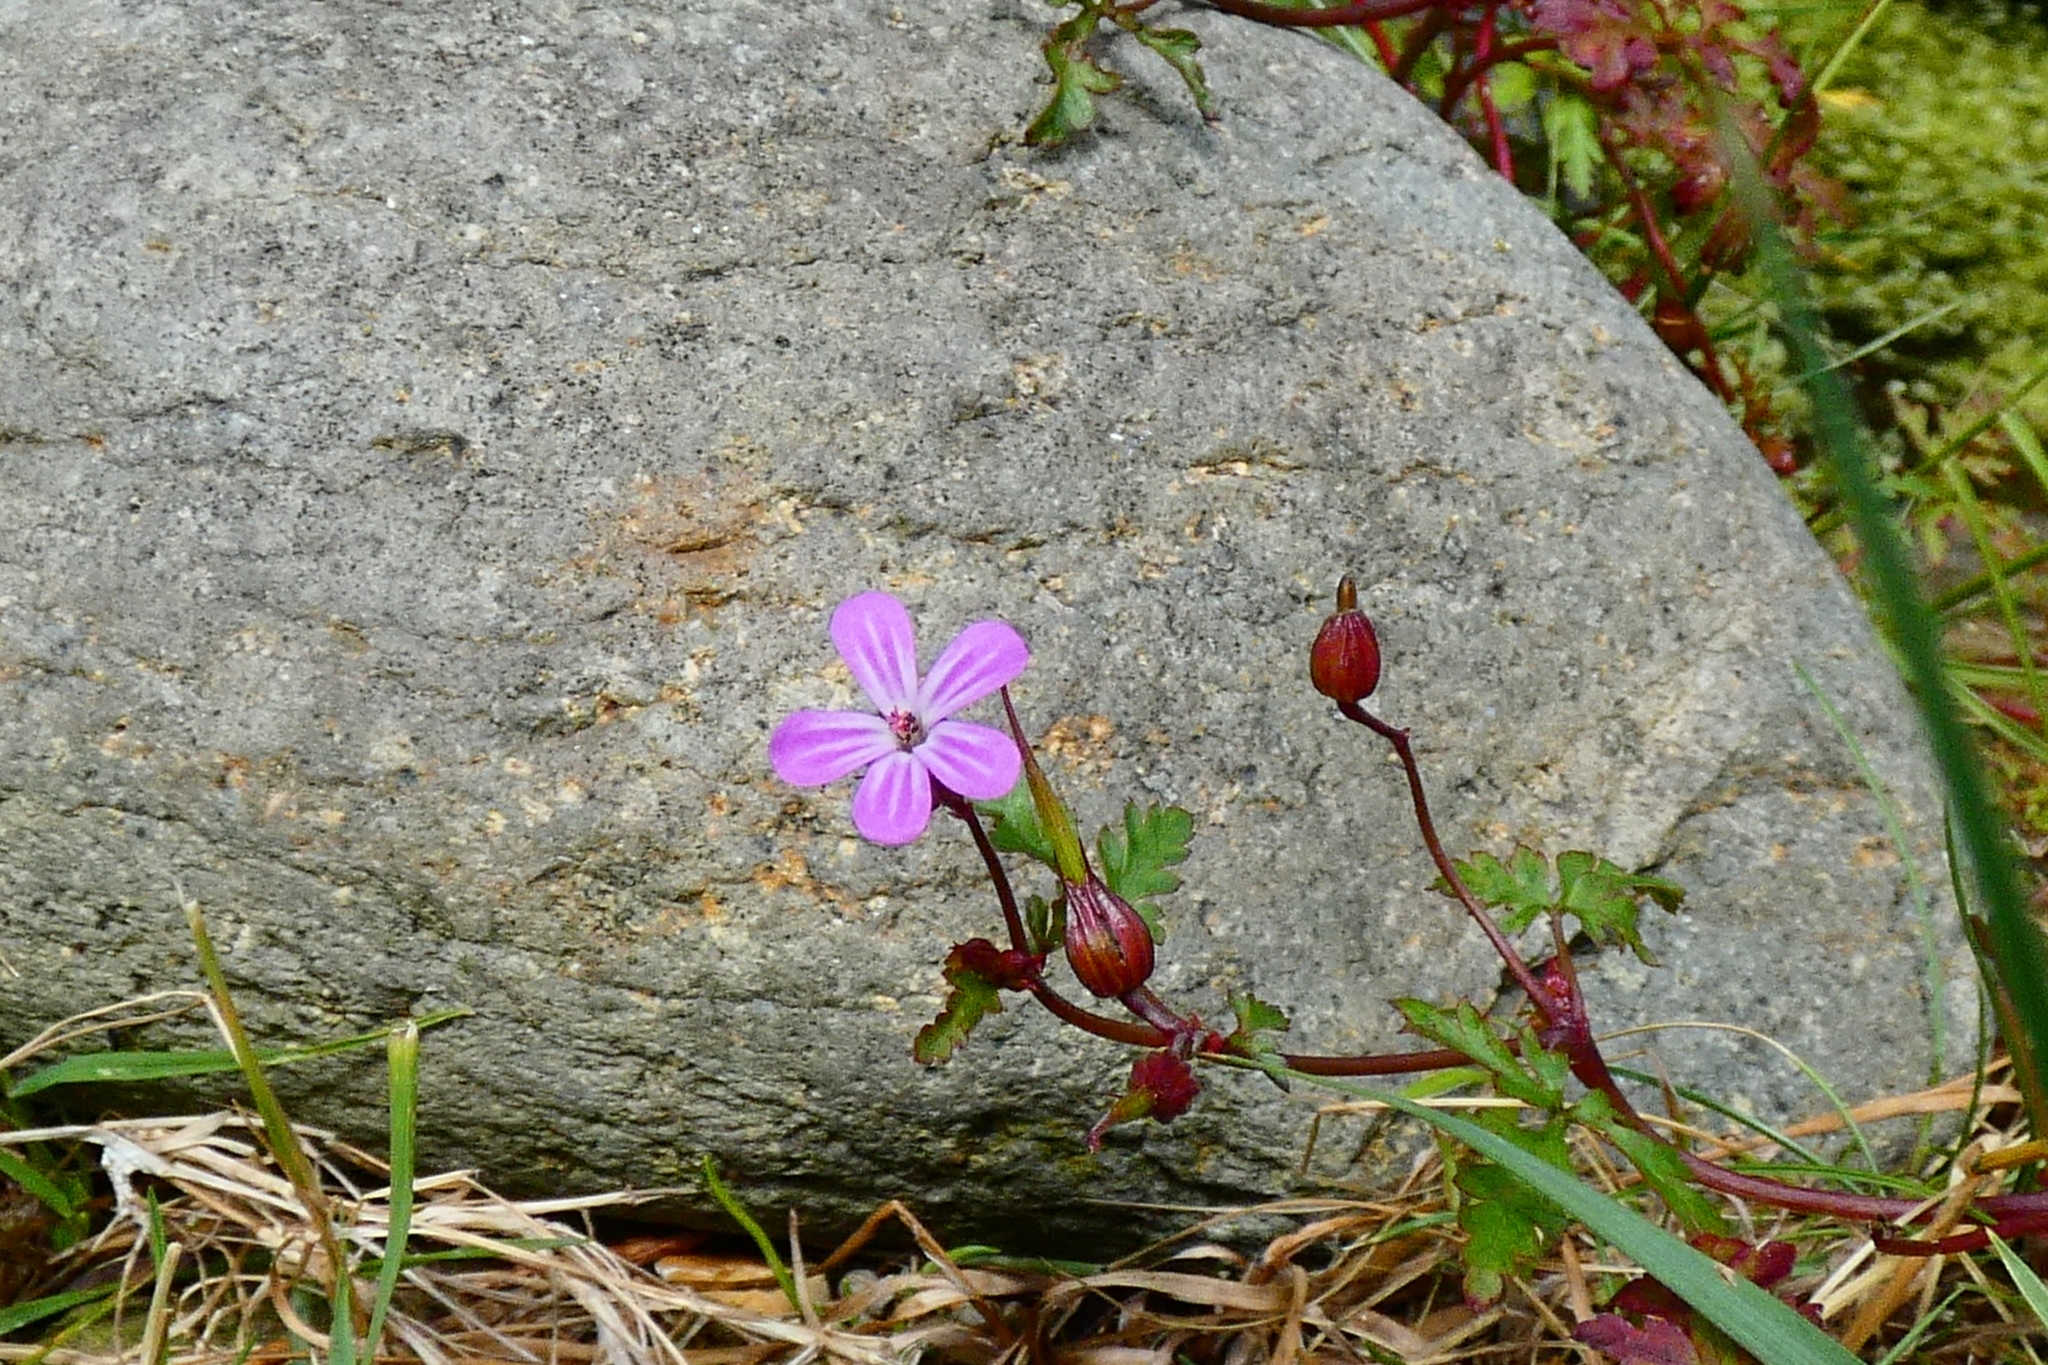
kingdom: Plantae
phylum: Tracheophyta
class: Magnoliopsida
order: Geraniales
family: Geraniaceae
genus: Geranium
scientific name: Geranium robertianum
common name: Herb-robert
